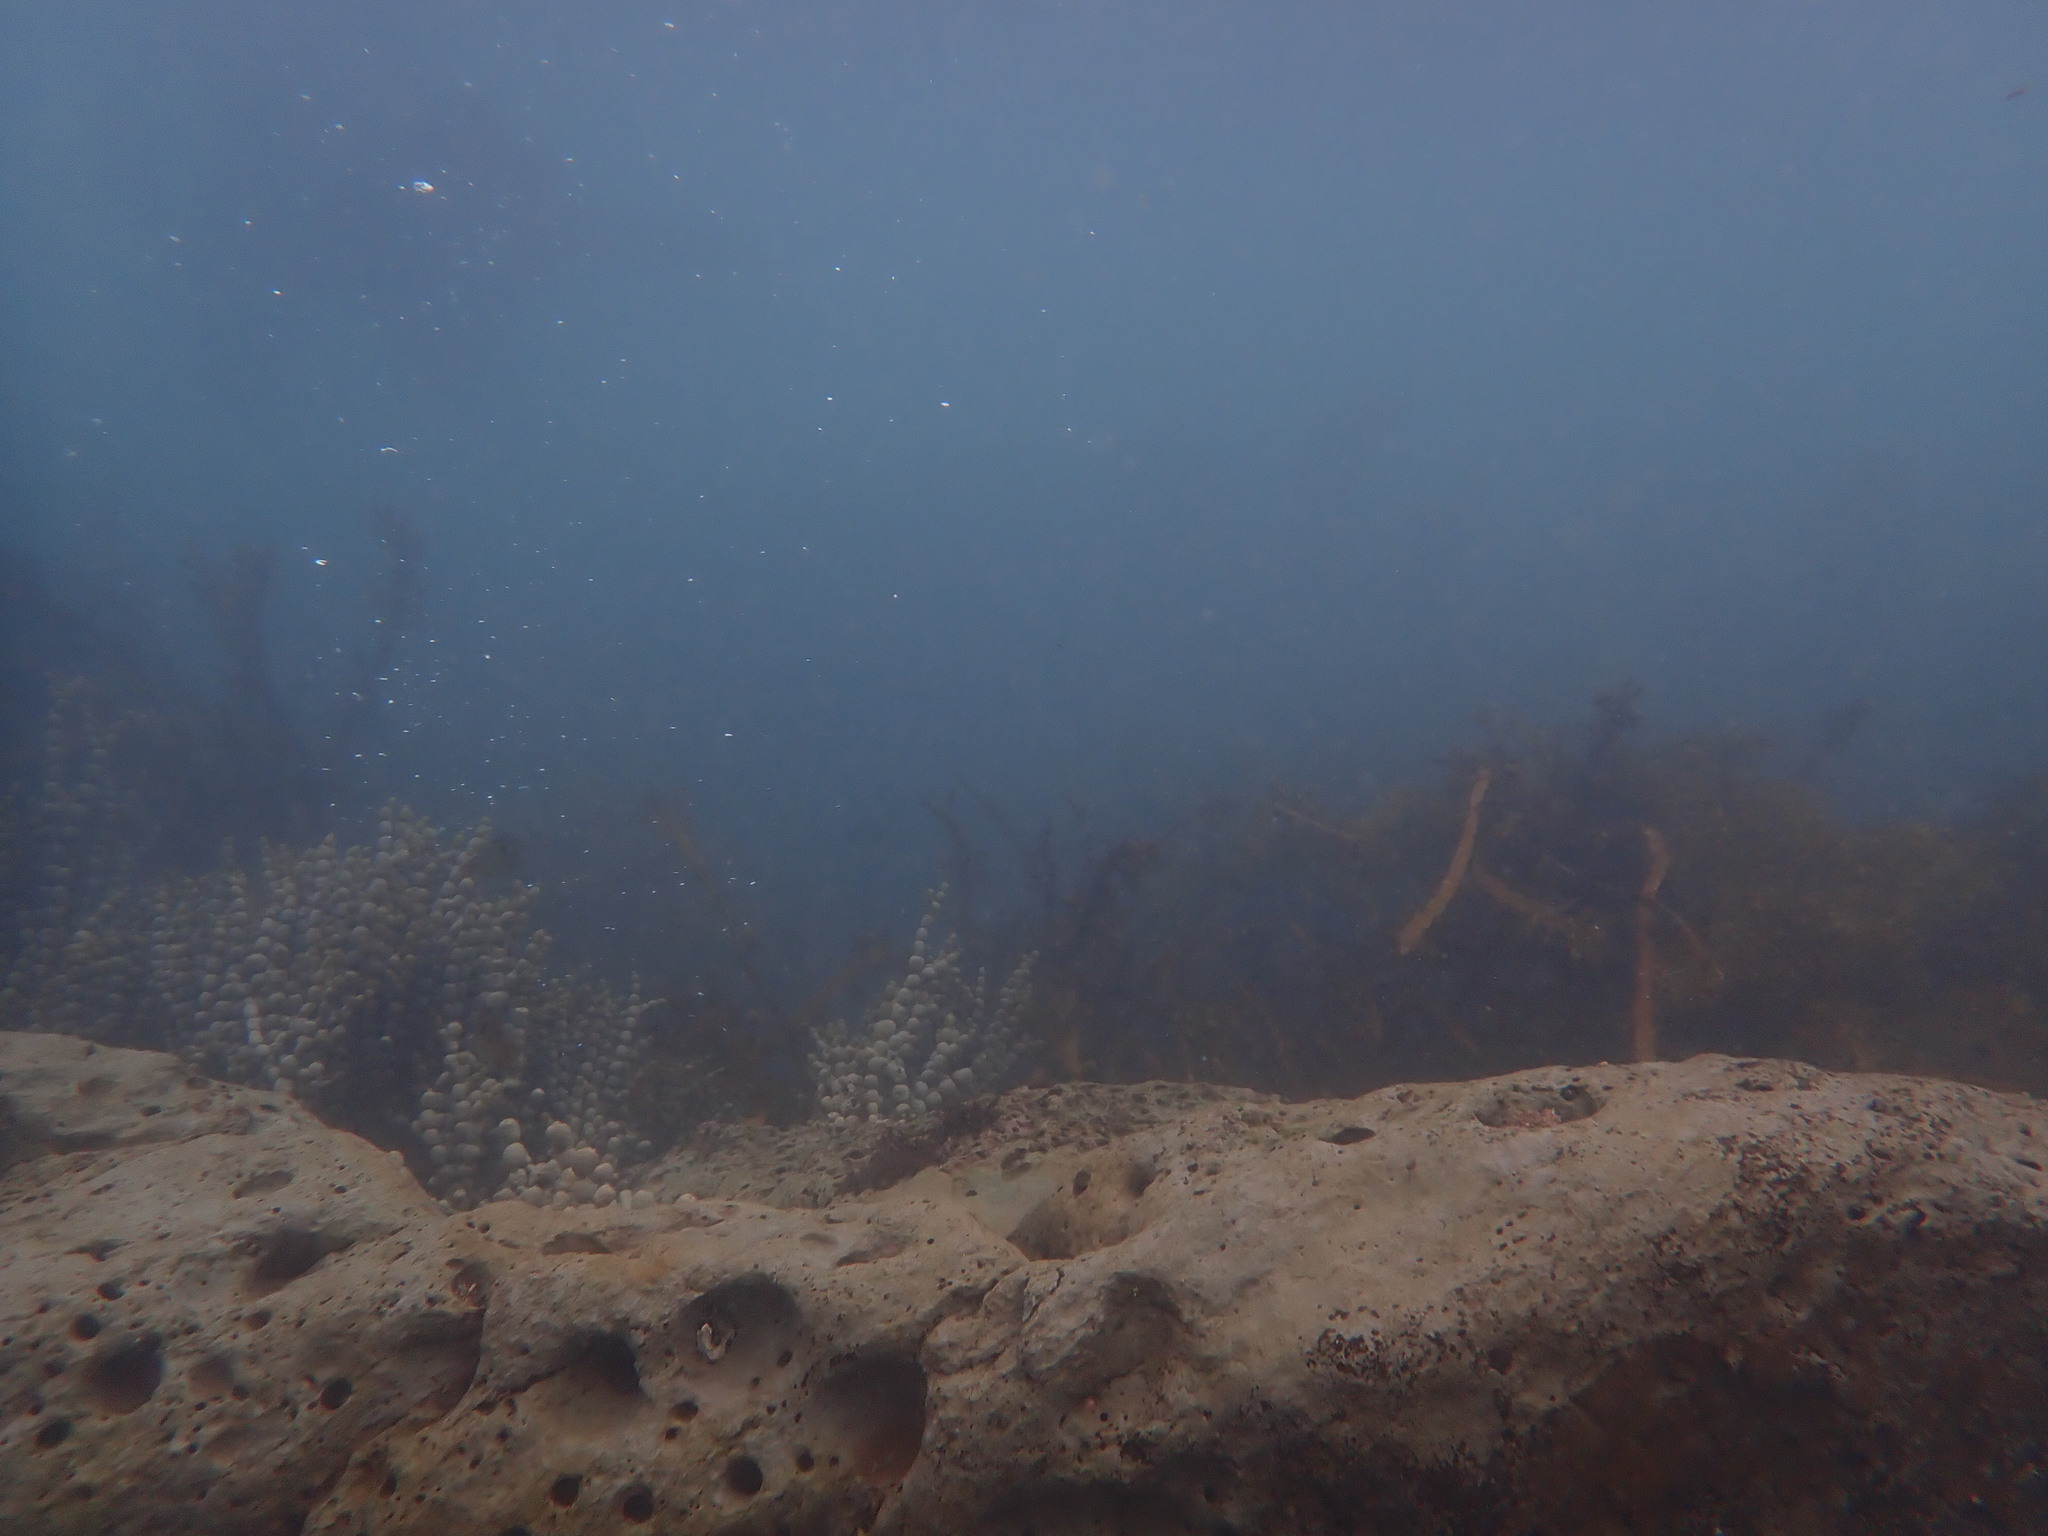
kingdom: Chromista
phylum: Ochrophyta
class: Phaeophyceae
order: Fucales
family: Hormosiraceae
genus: Hormosira
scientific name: Hormosira banksii
